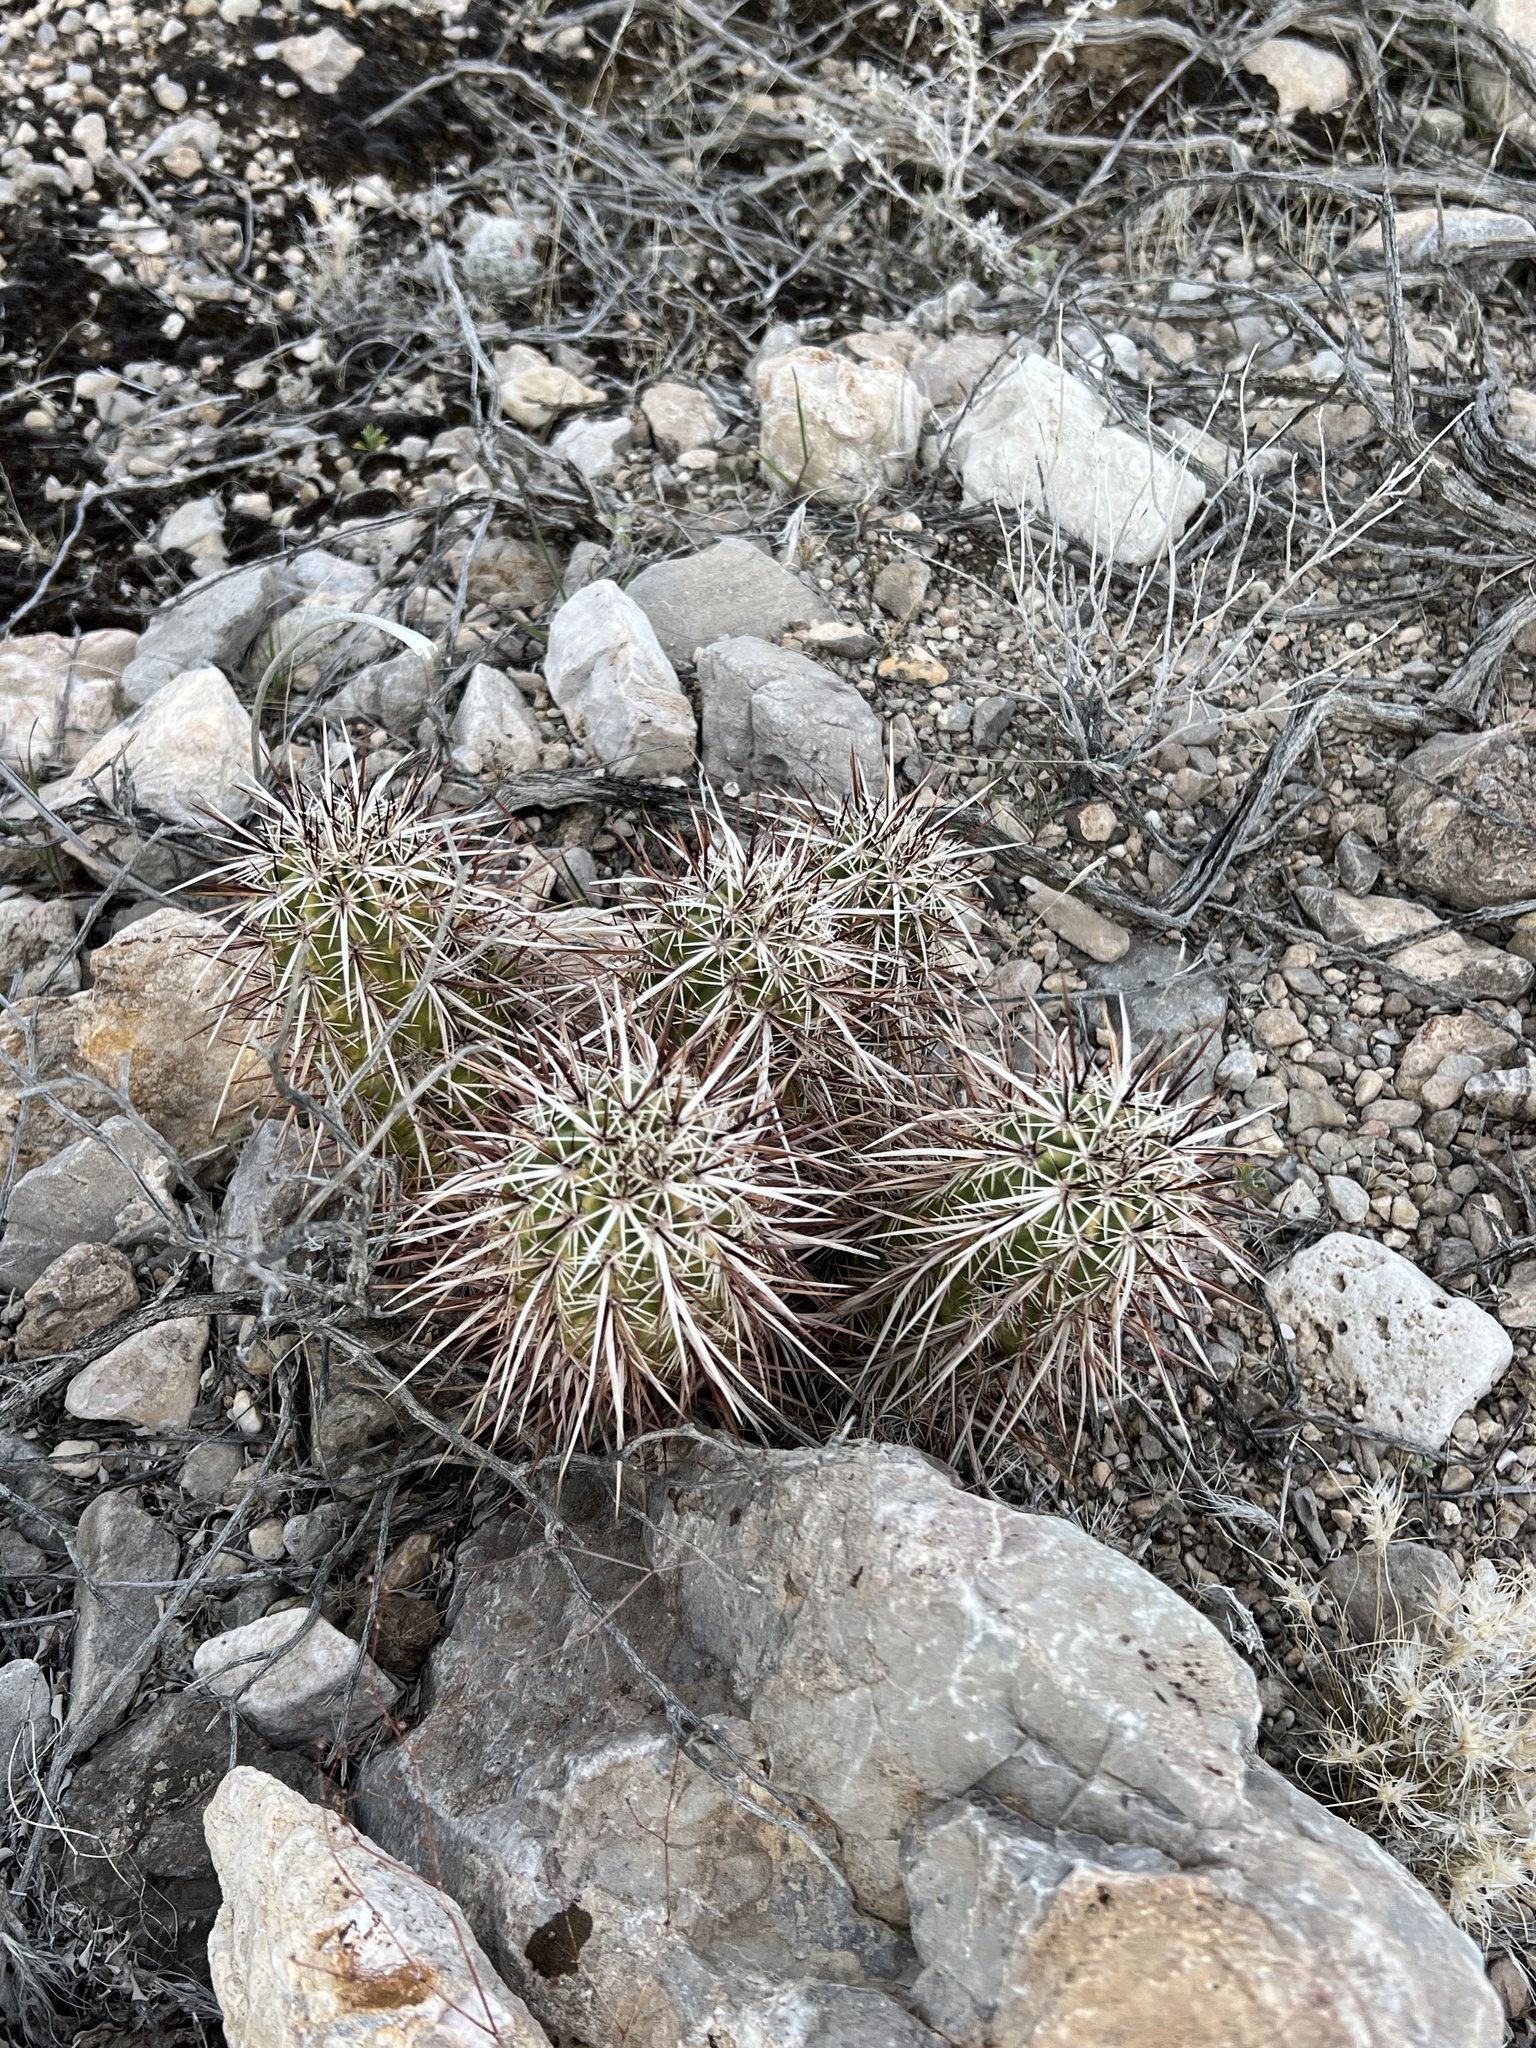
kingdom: Plantae
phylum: Tracheophyta
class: Magnoliopsida
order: Caryophyllales
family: Cactaceae
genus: Echinocereus
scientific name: Echinocereus engelmannii
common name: Engelmann's hedgehog cactus
